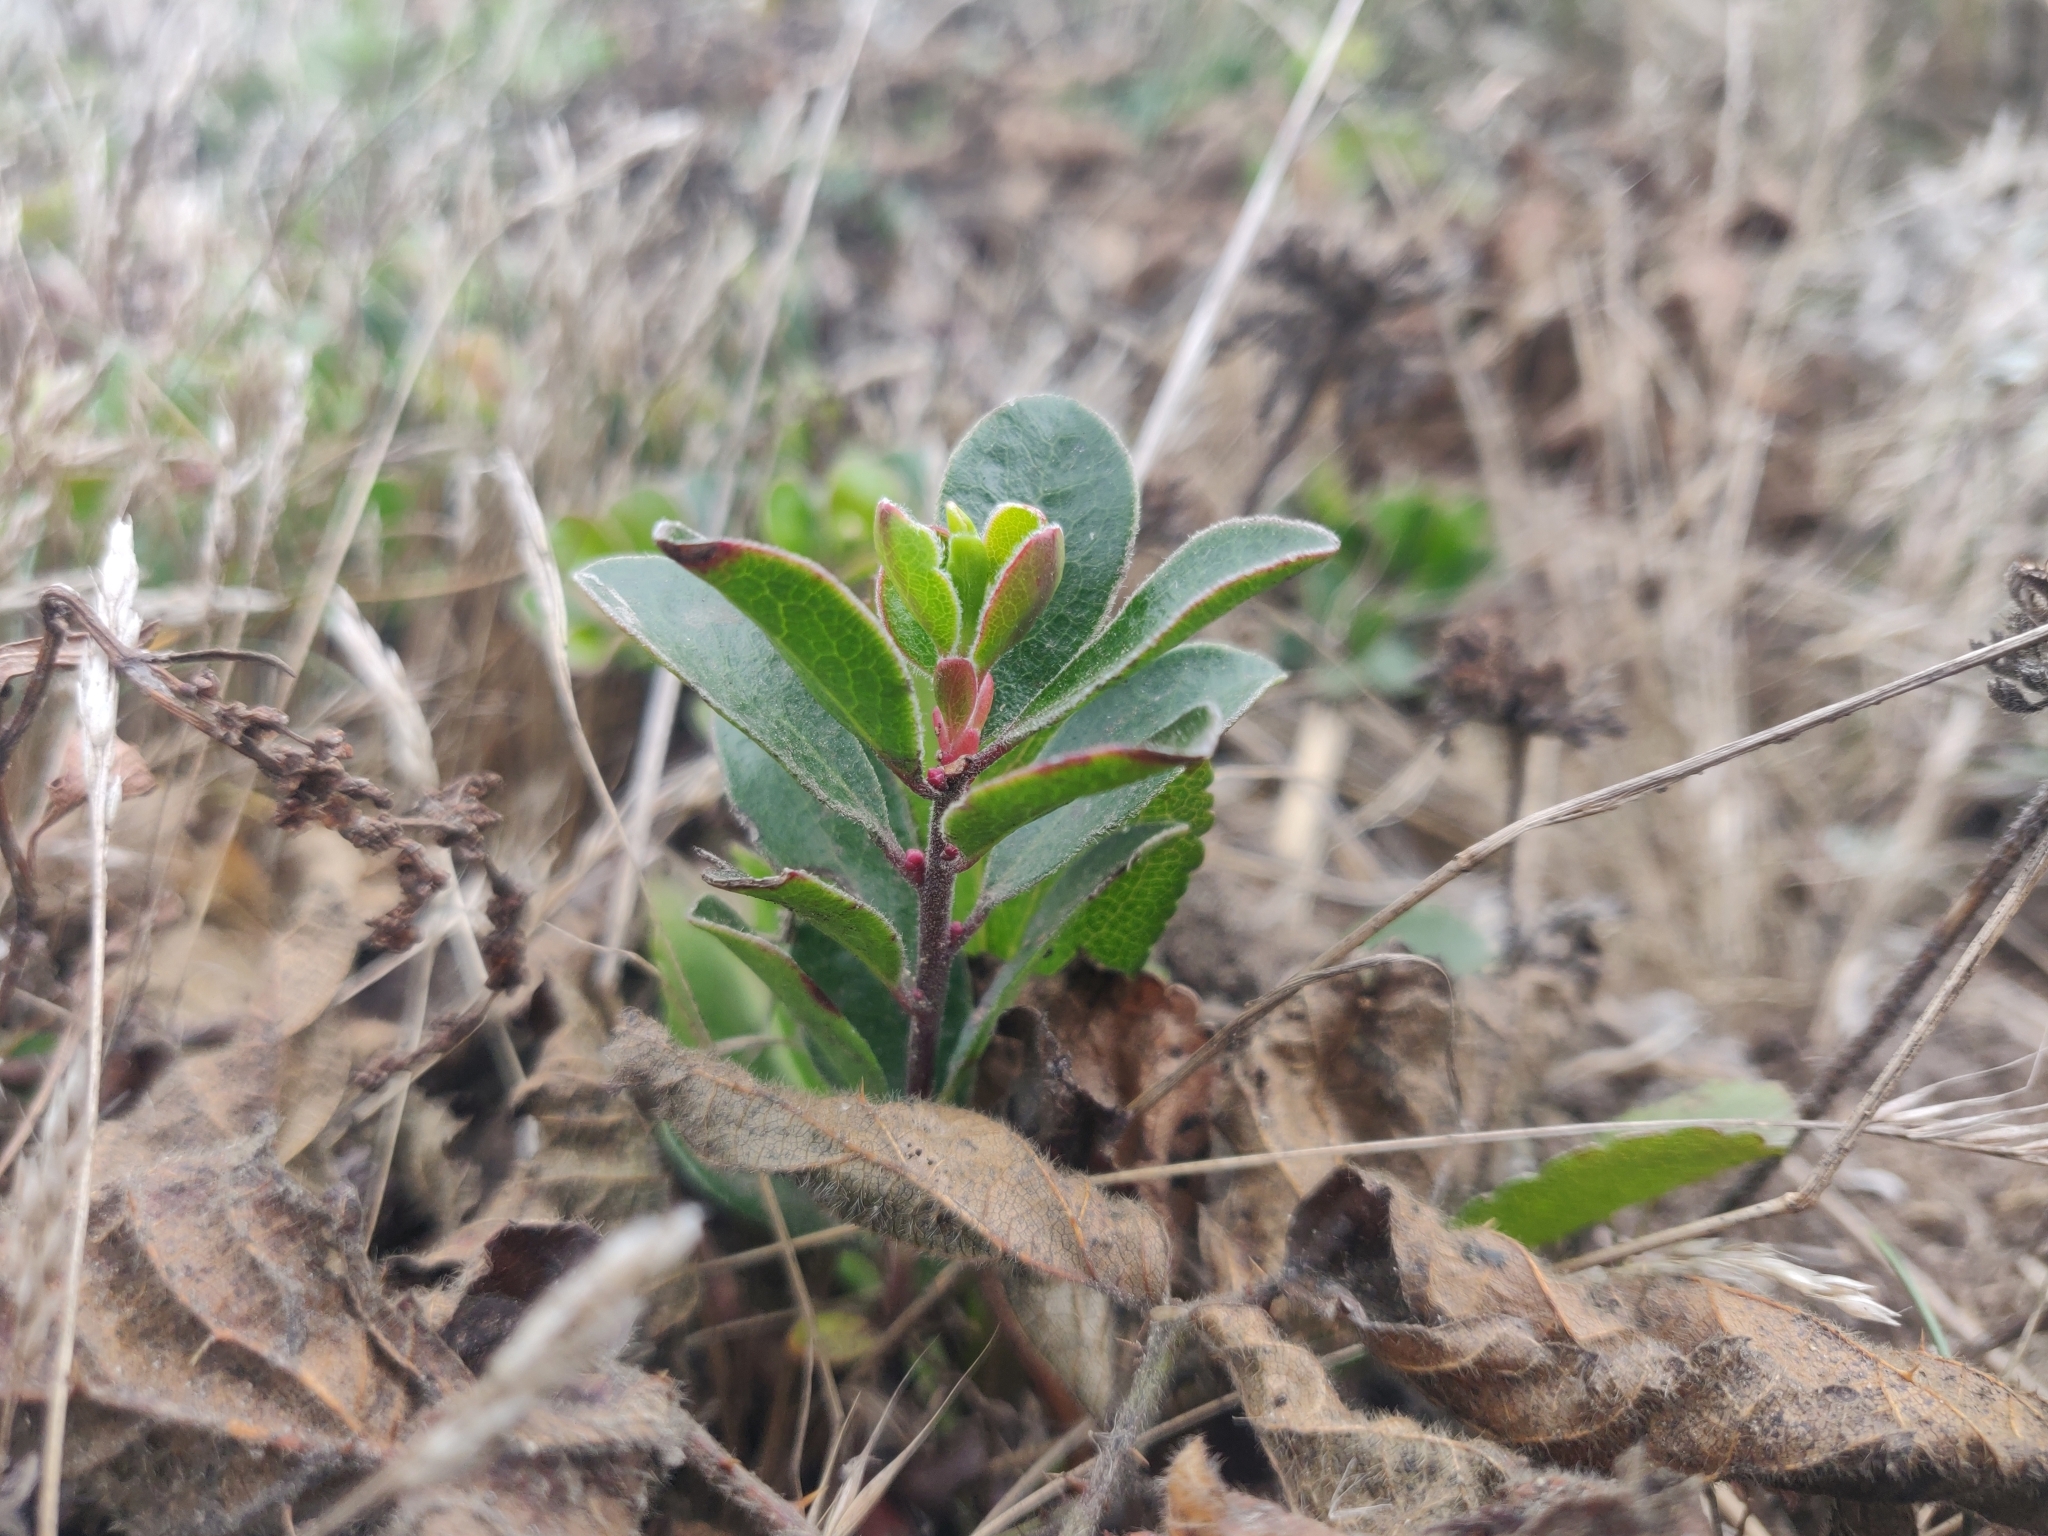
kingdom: Plantae
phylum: Tracheophyta
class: Magnoliopsida
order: Ericales
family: Ericaceae
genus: Arctostaphylos
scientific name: Arctostaphylos uva-ursi
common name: Bearberry
